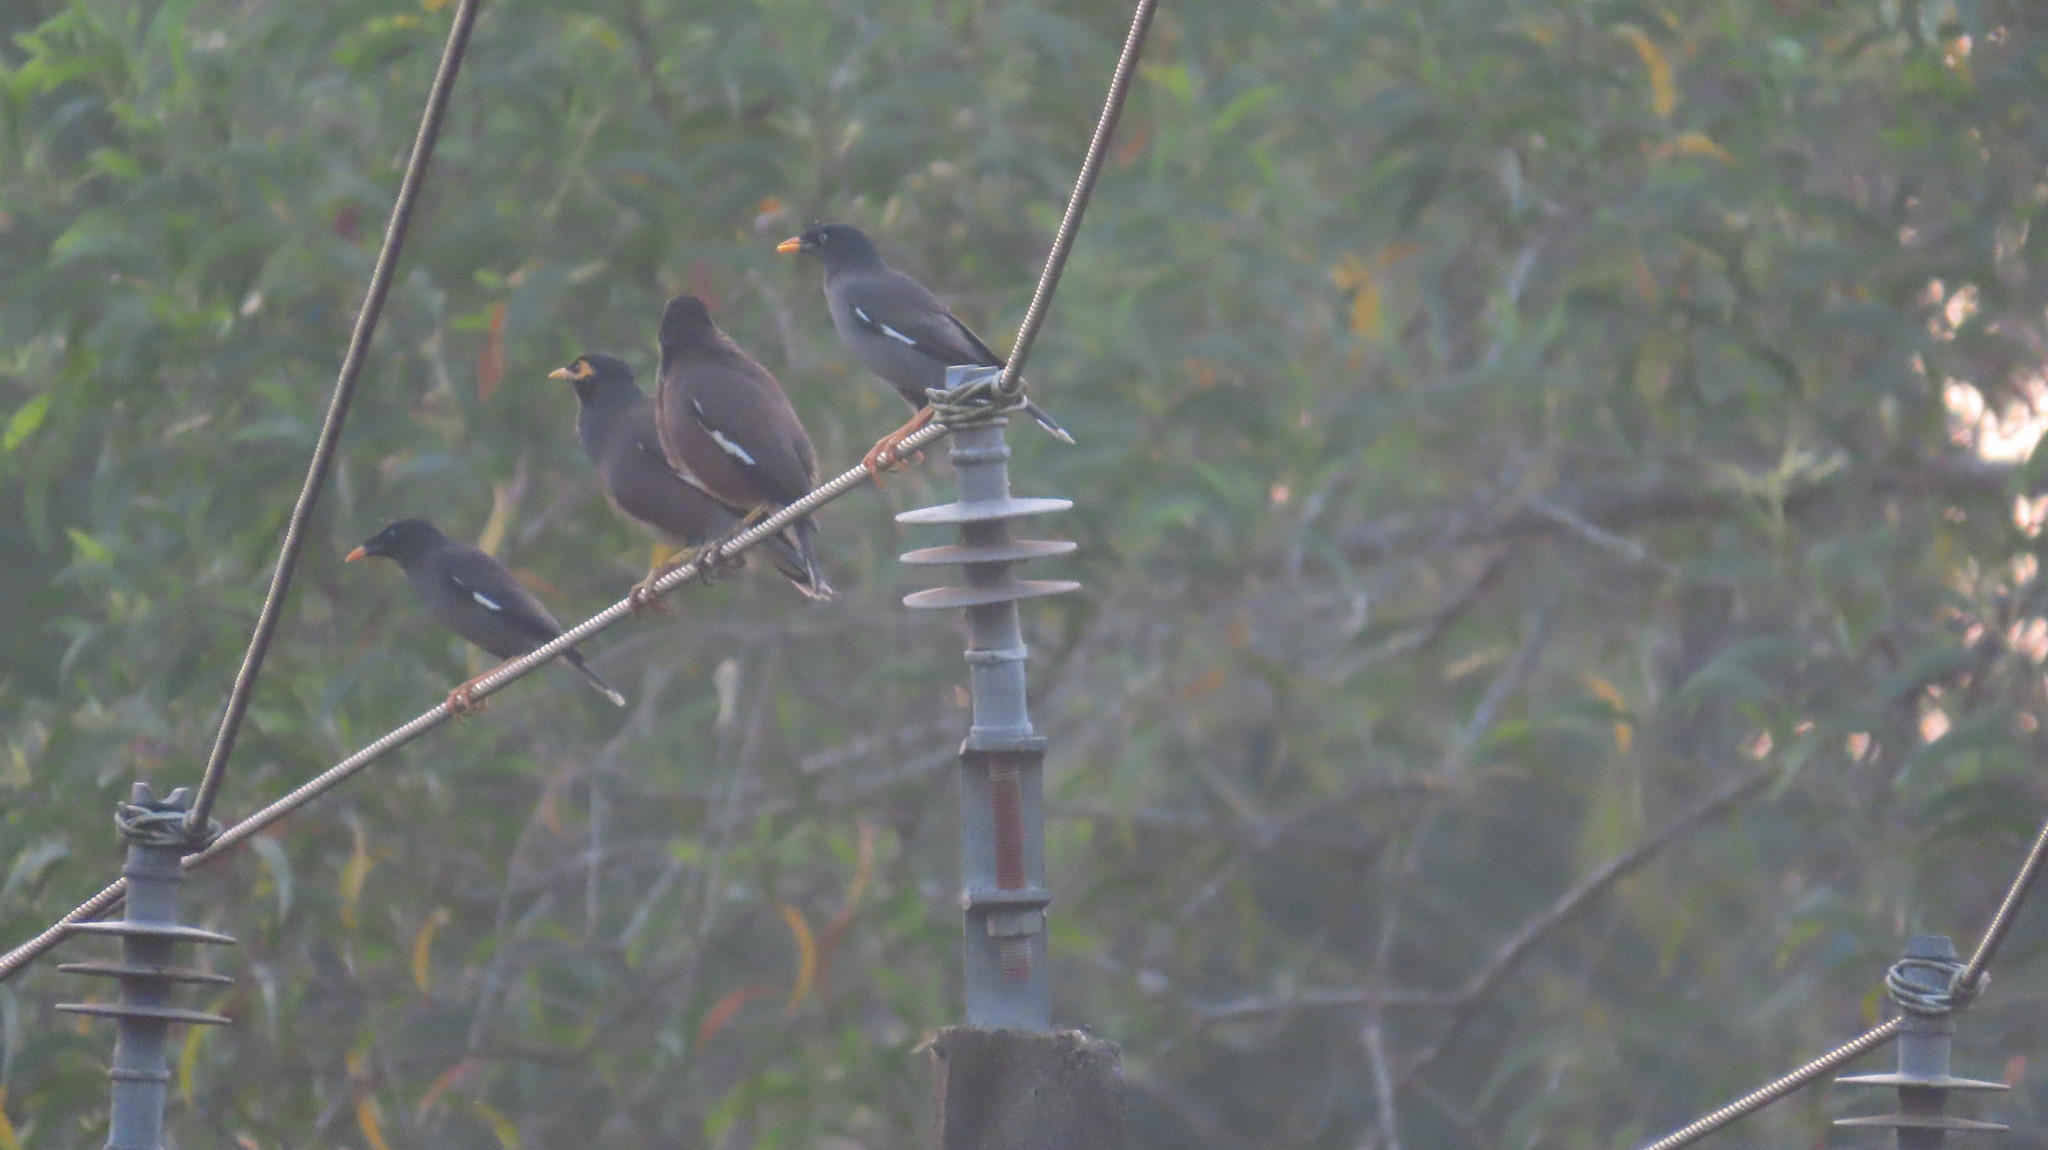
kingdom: Animalia
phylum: Chordata
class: Aves
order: Passeriformes
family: Sturnidae
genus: Acridotheres
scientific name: Acridotheres tristis
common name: Common myna
